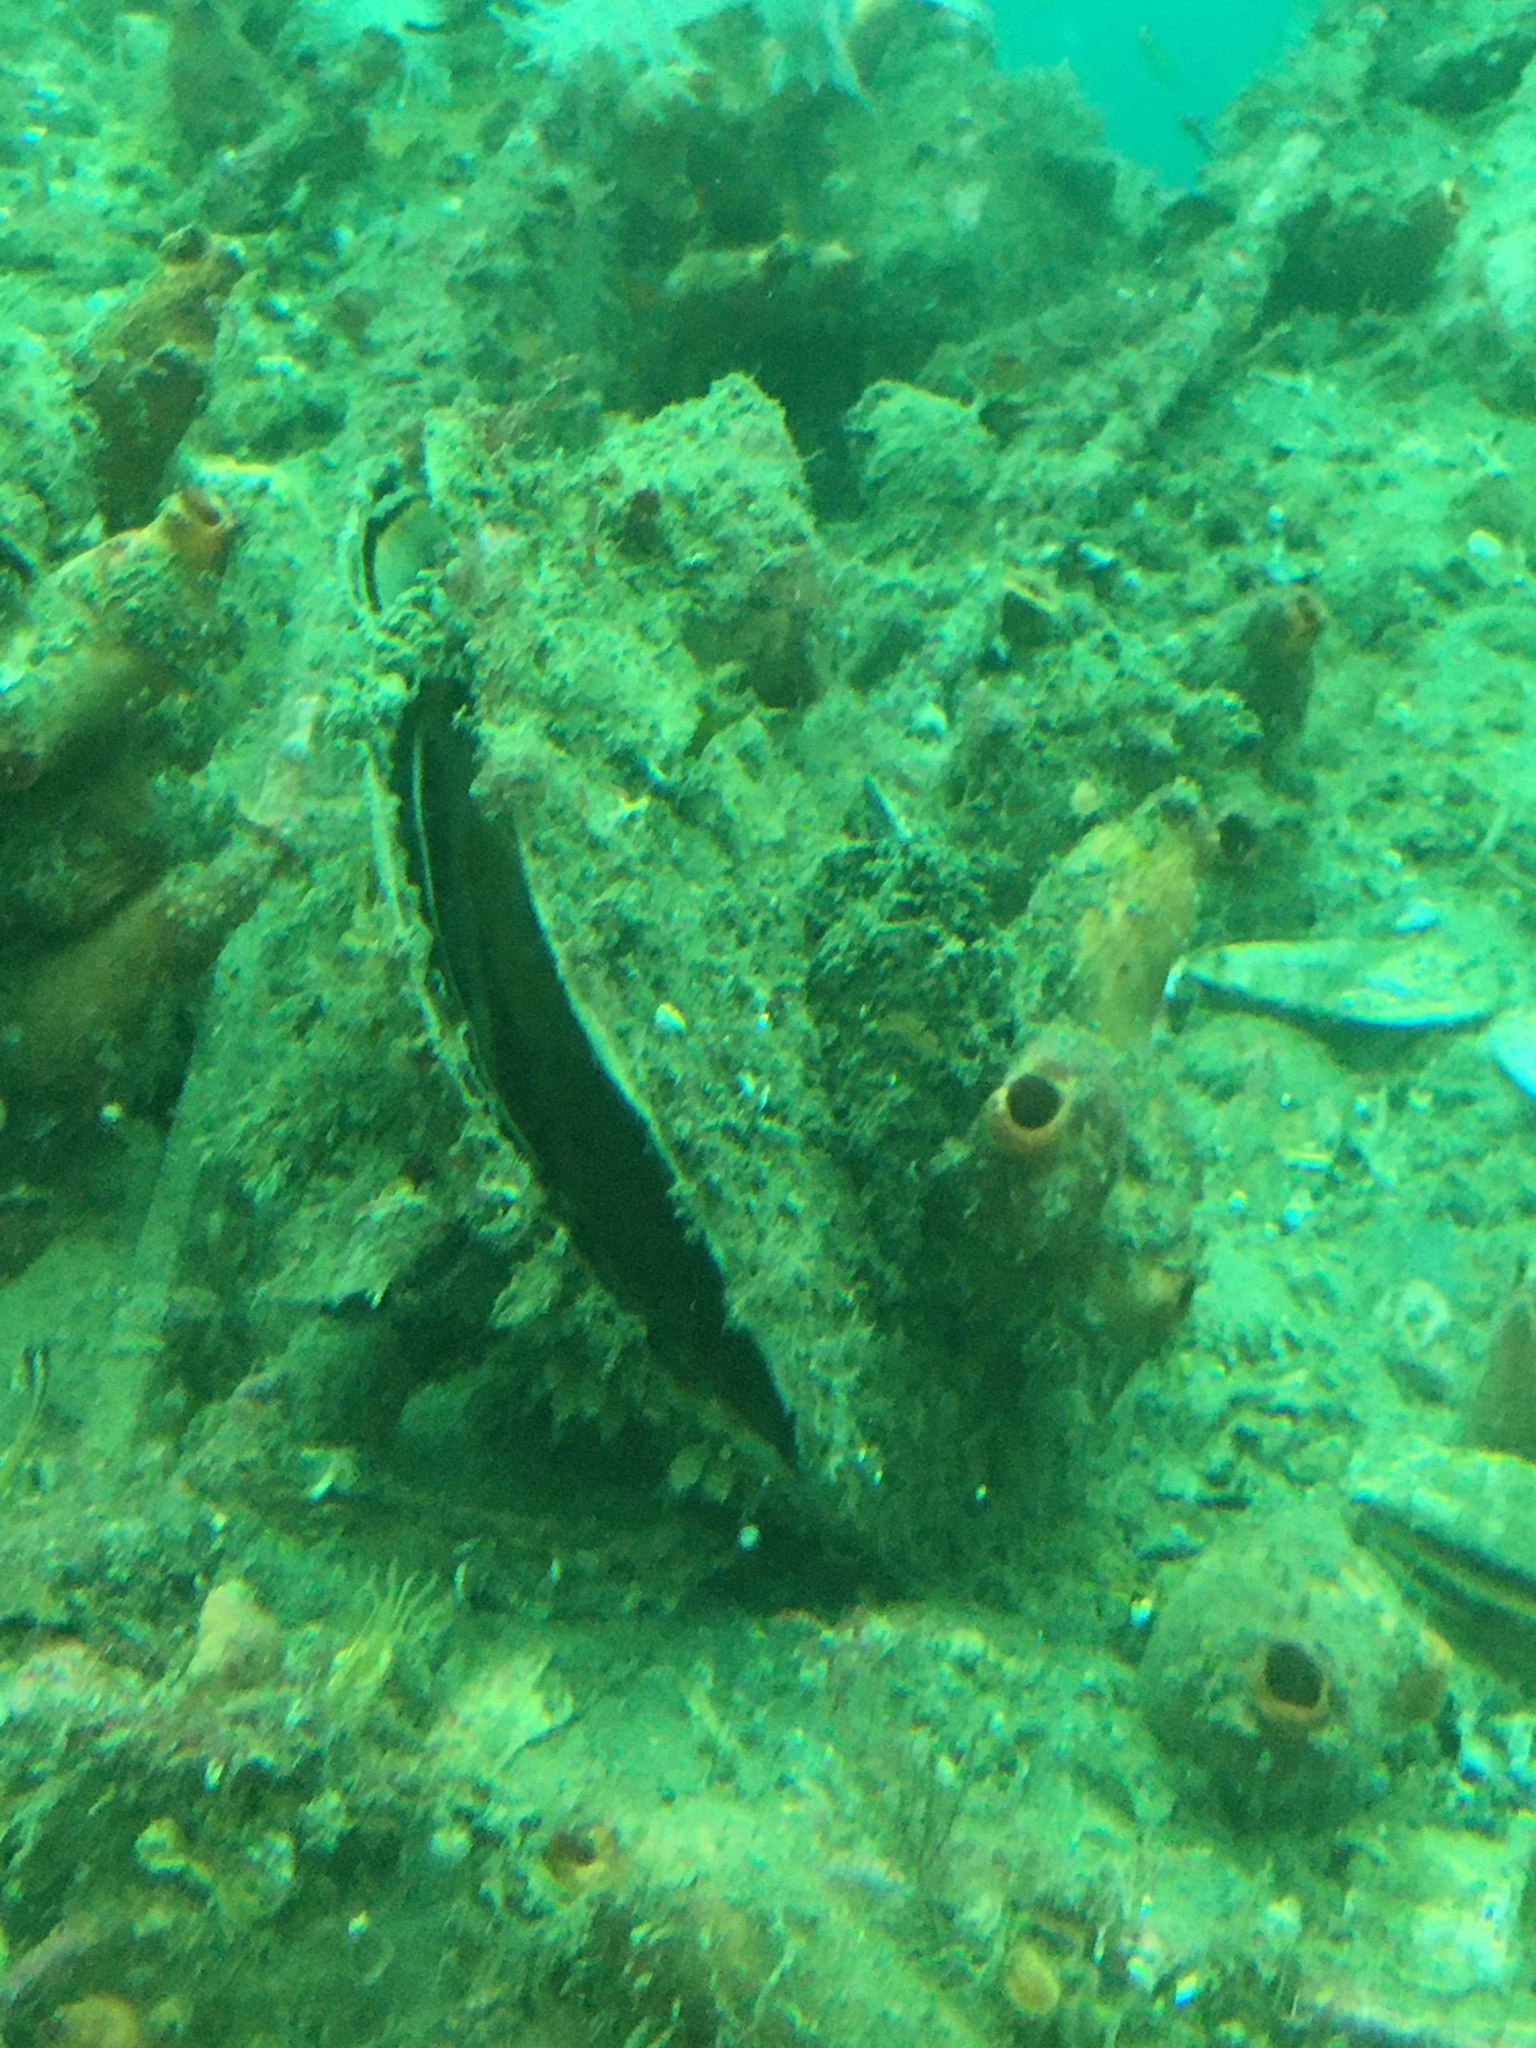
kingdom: Animalia
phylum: Mollusca
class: Bivalvia
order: Ostreida
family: Pinnidae
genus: Atrina
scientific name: Atrina zelandica
